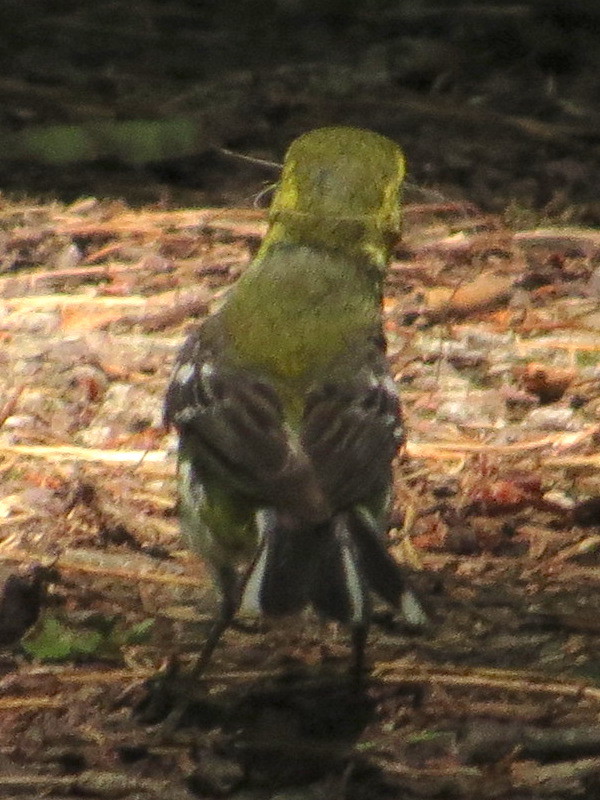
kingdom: Animalia
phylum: Chordata
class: Aves
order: Passeriformes
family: Parulidae
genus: Setophaga
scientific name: Setophaga virens
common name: Black-throated green warbler
